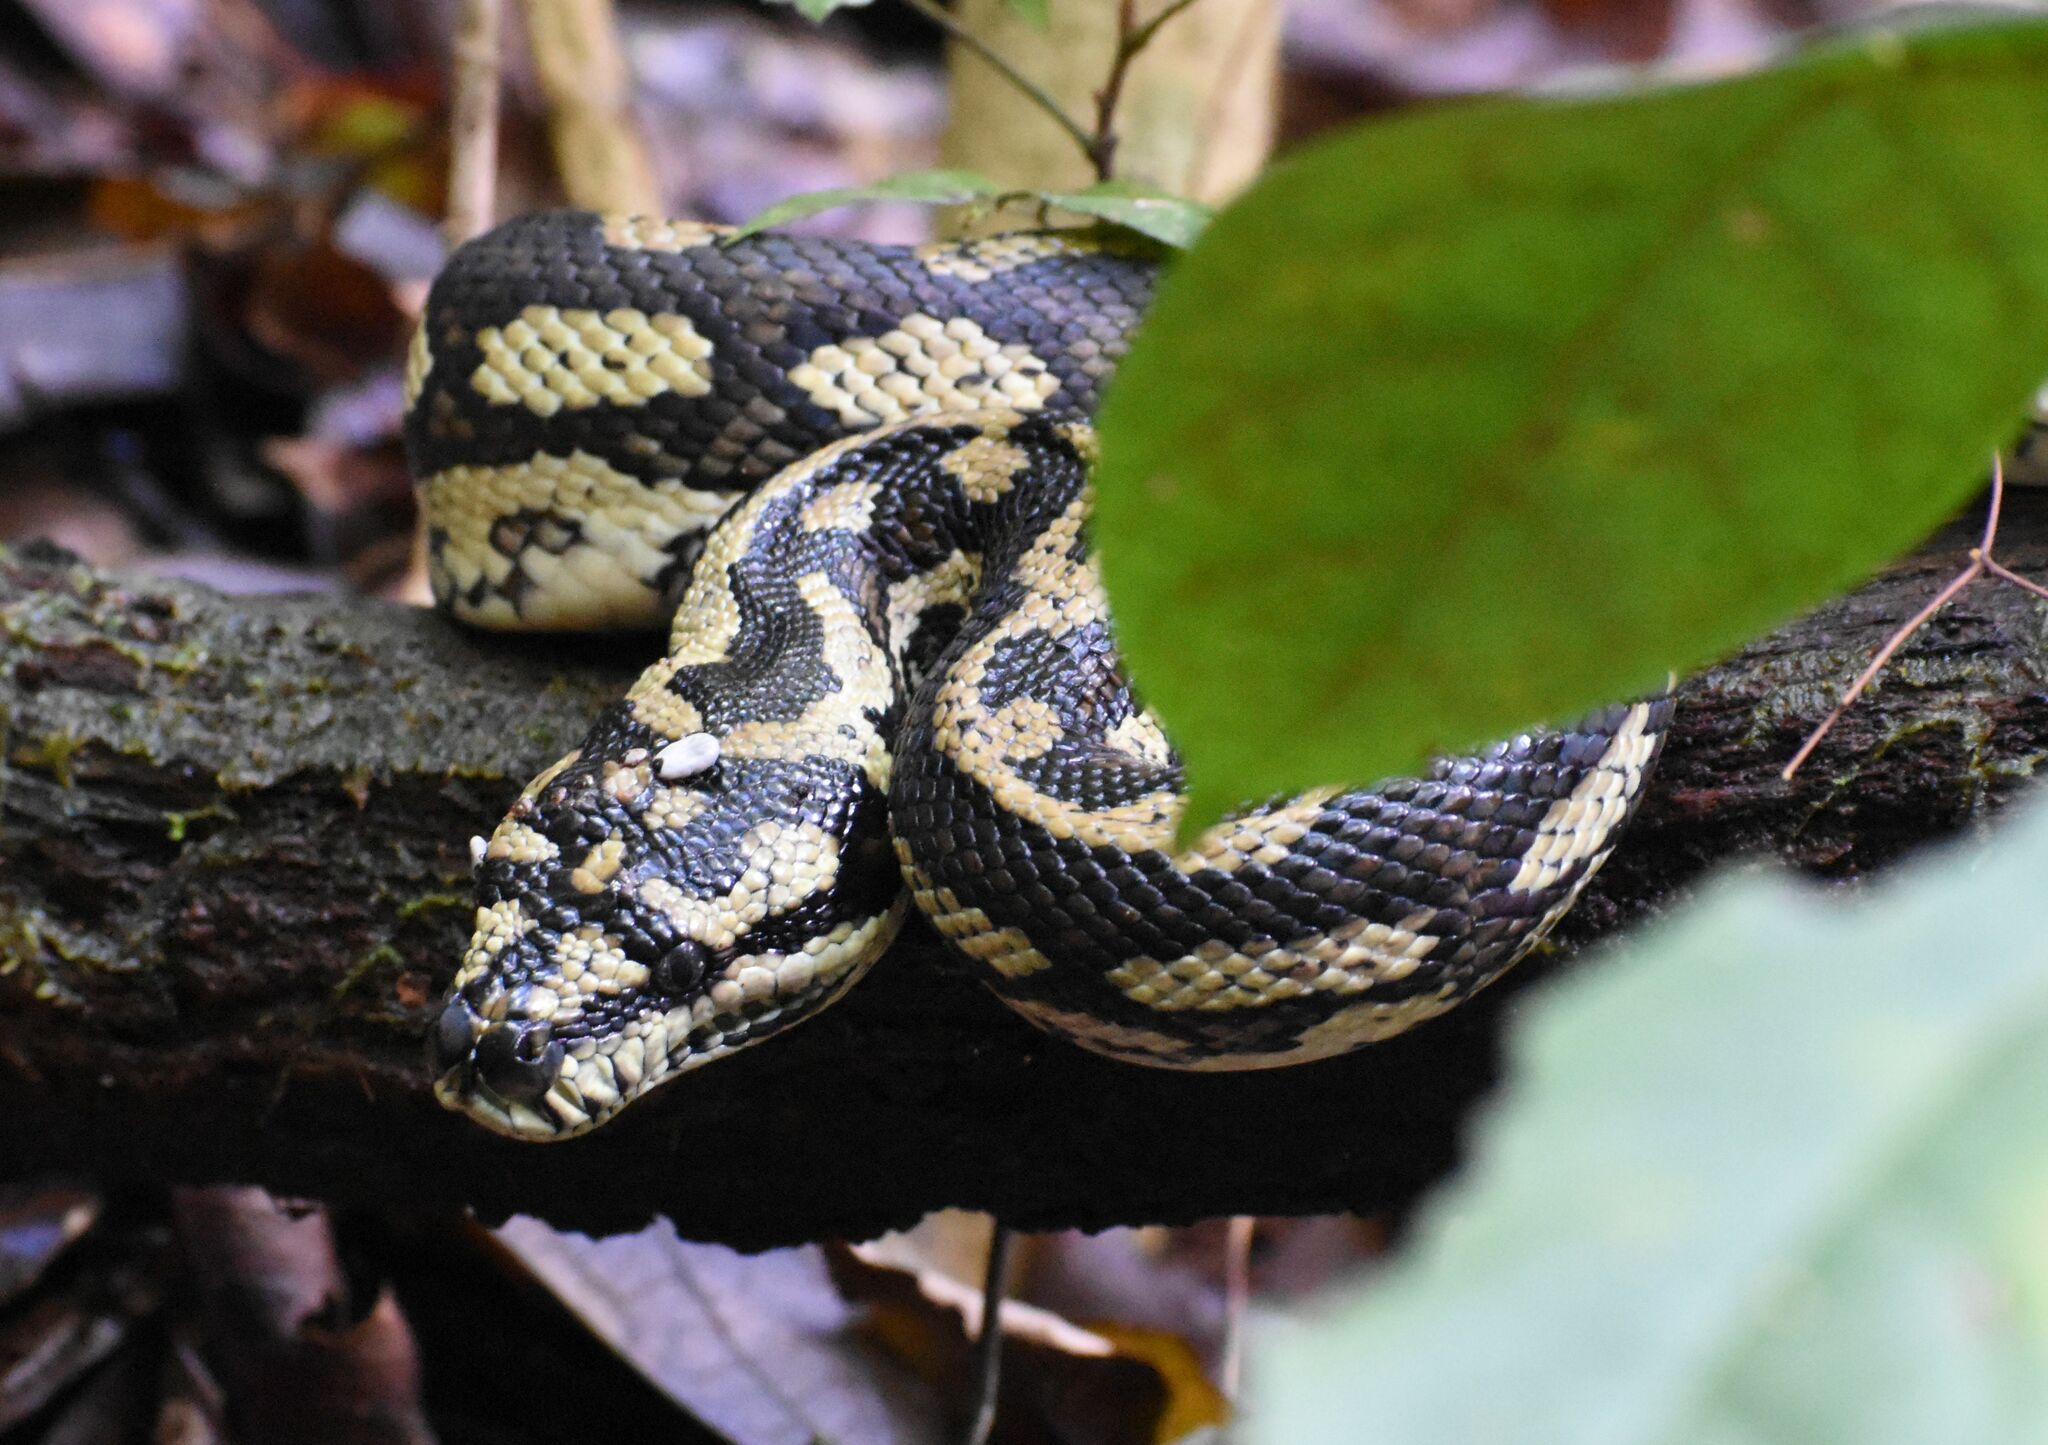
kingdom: Animalia
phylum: Chordata
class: Squamata
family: Pythonidae
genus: Morelia
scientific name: Morelia spilota
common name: Carpet python
